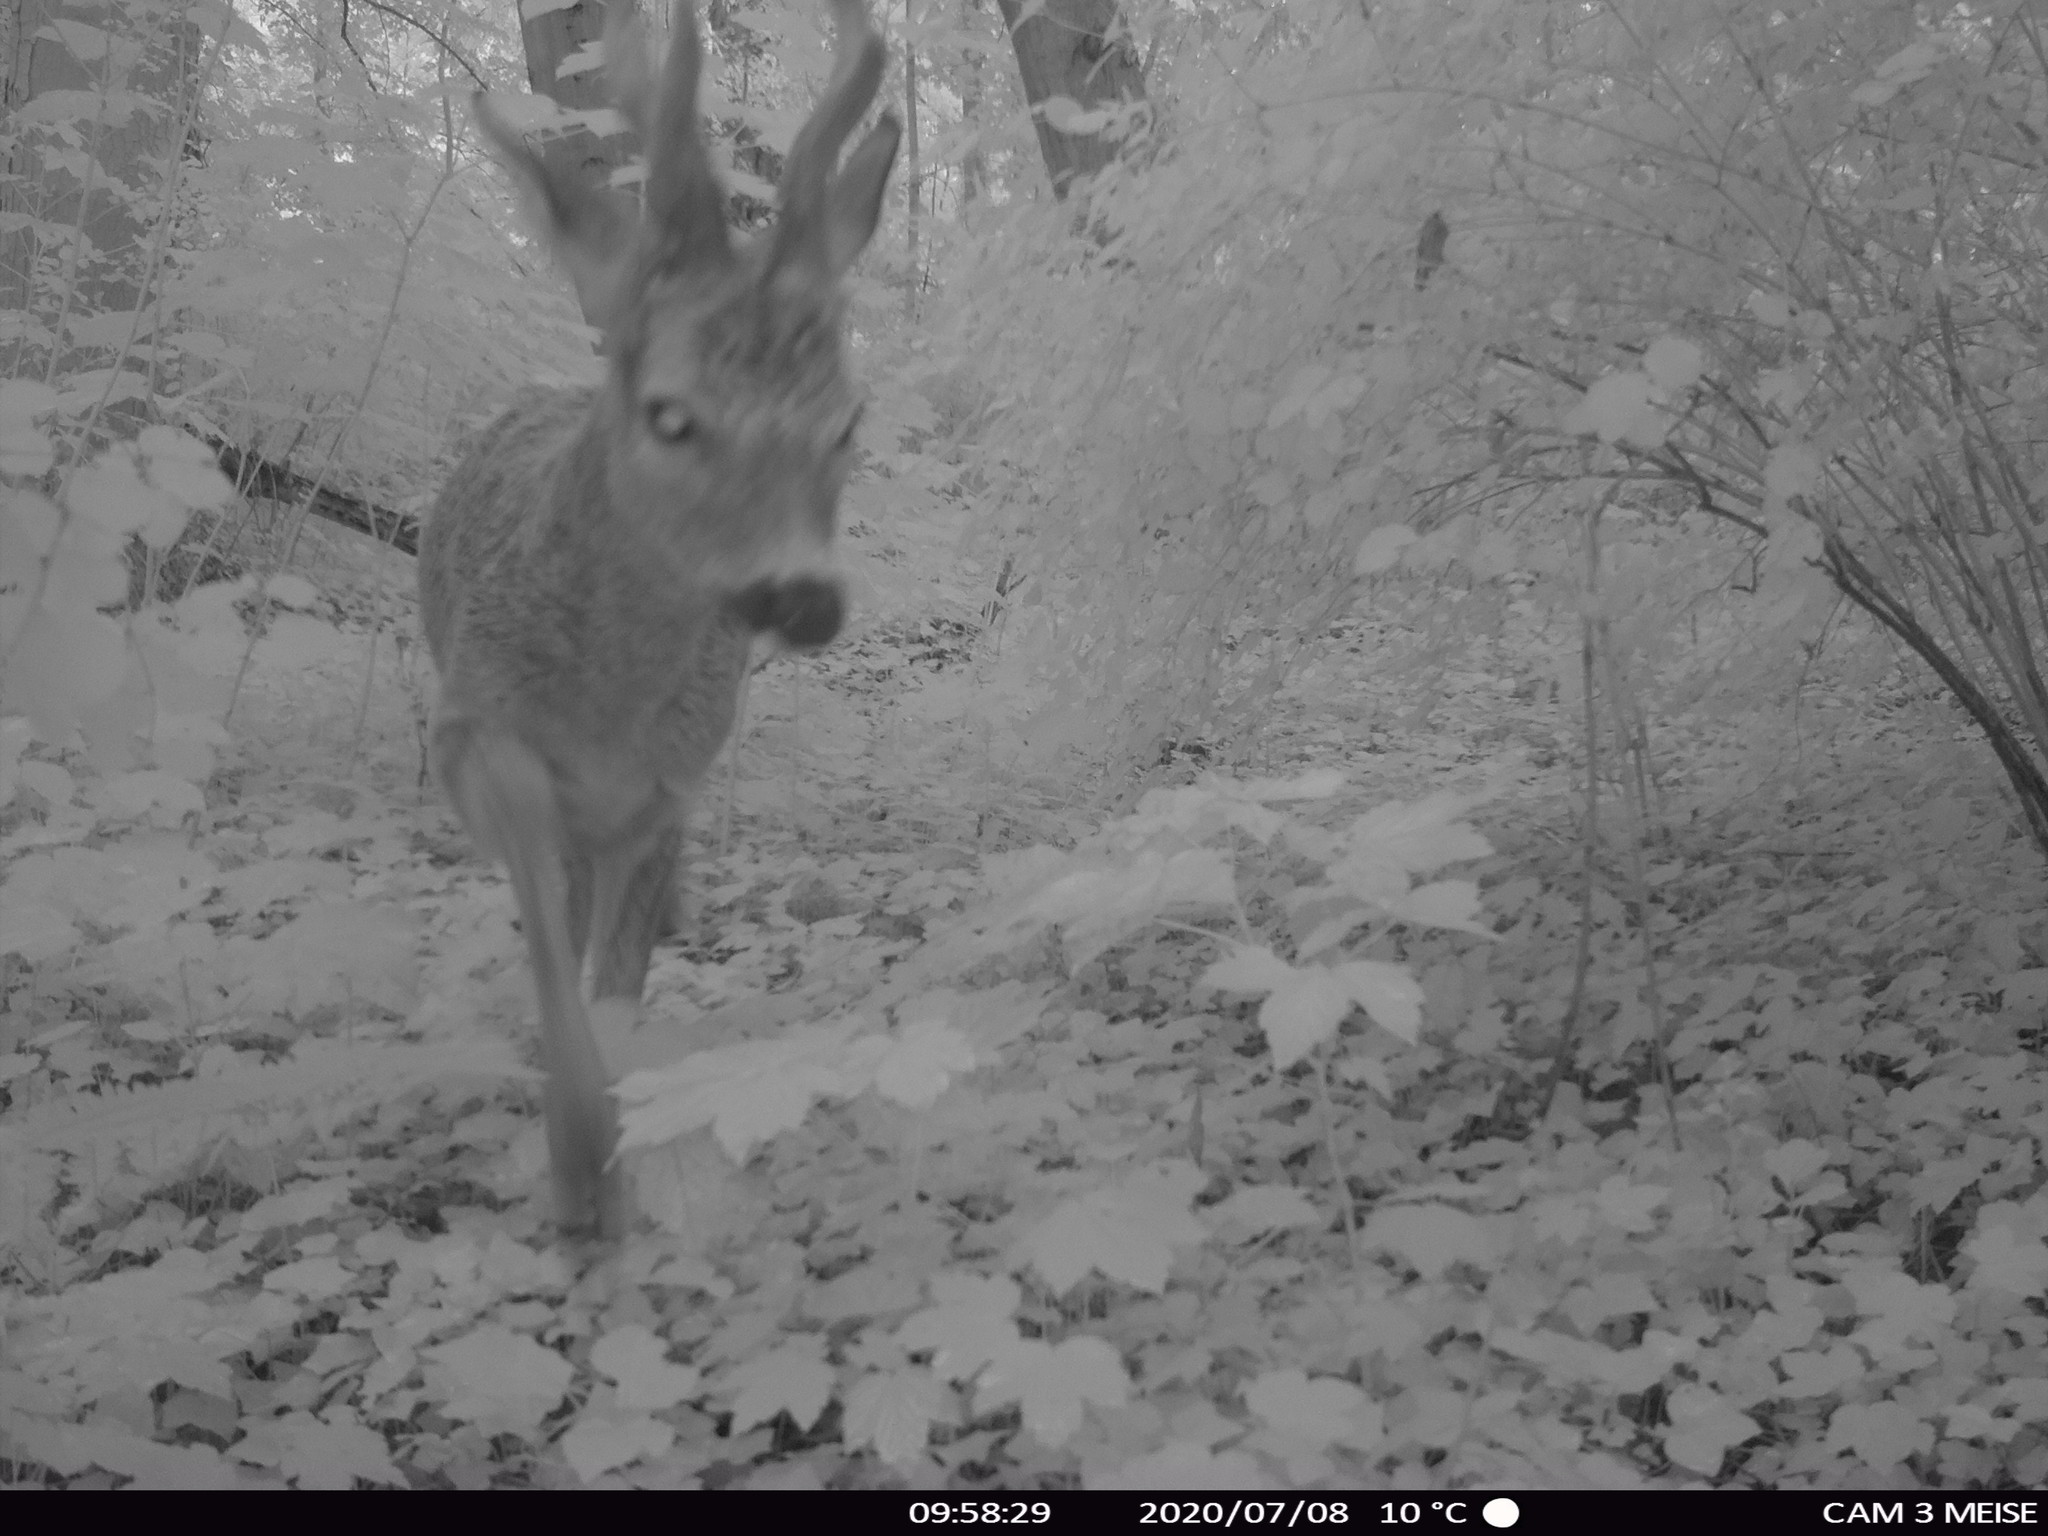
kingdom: Animalia
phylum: Chordata
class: Mammalia
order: Artiodactyla
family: Cervidae
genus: Capreolus
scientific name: Capreolus capreolus
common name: Western roe deer
